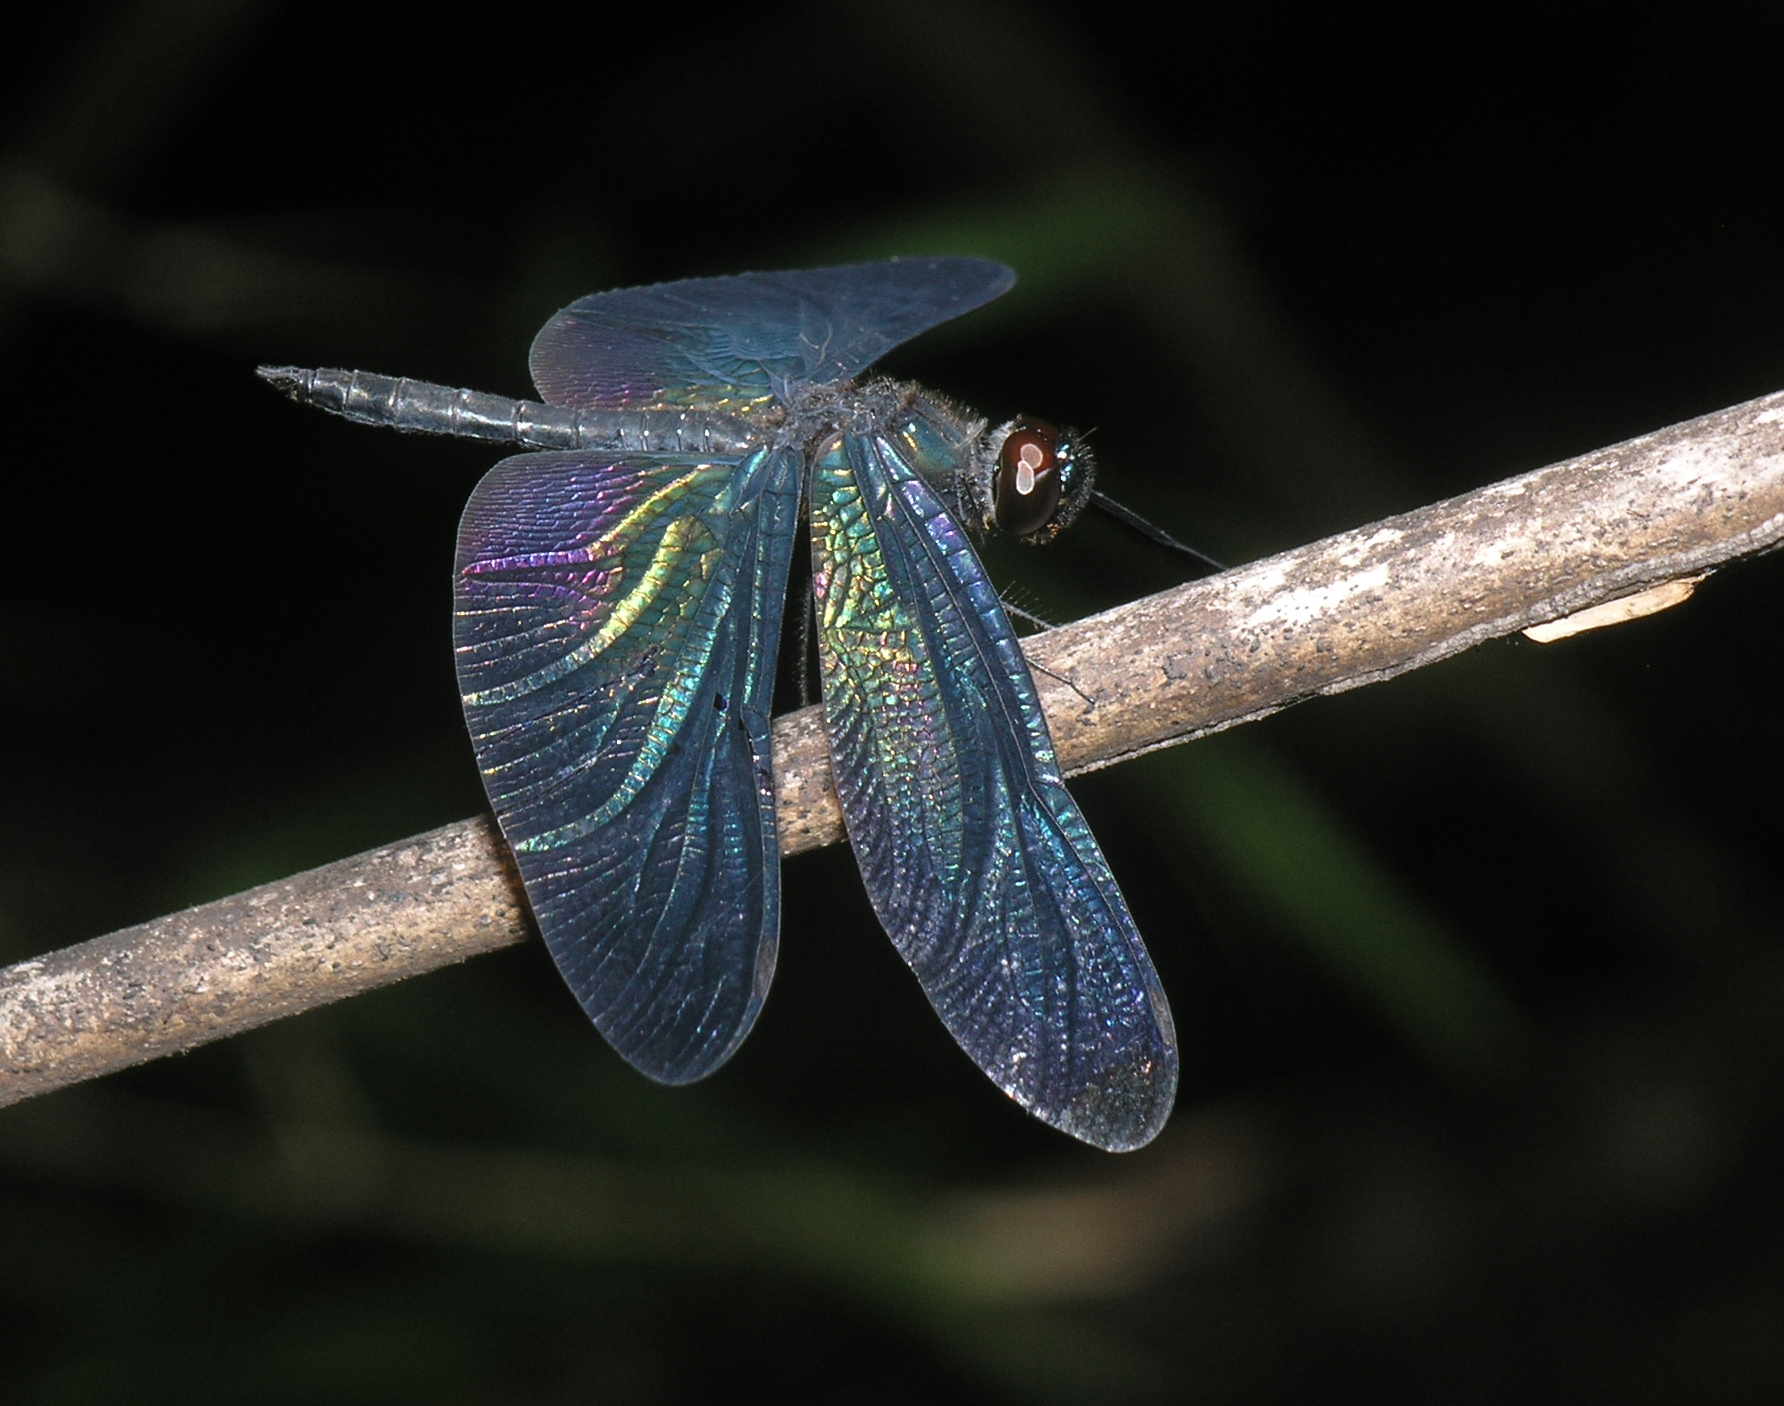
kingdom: Animalia
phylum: Arthropoda
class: Insecta
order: Odonata
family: Libellulidae
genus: Rhyothemis
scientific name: Rhyothemis plutonia
